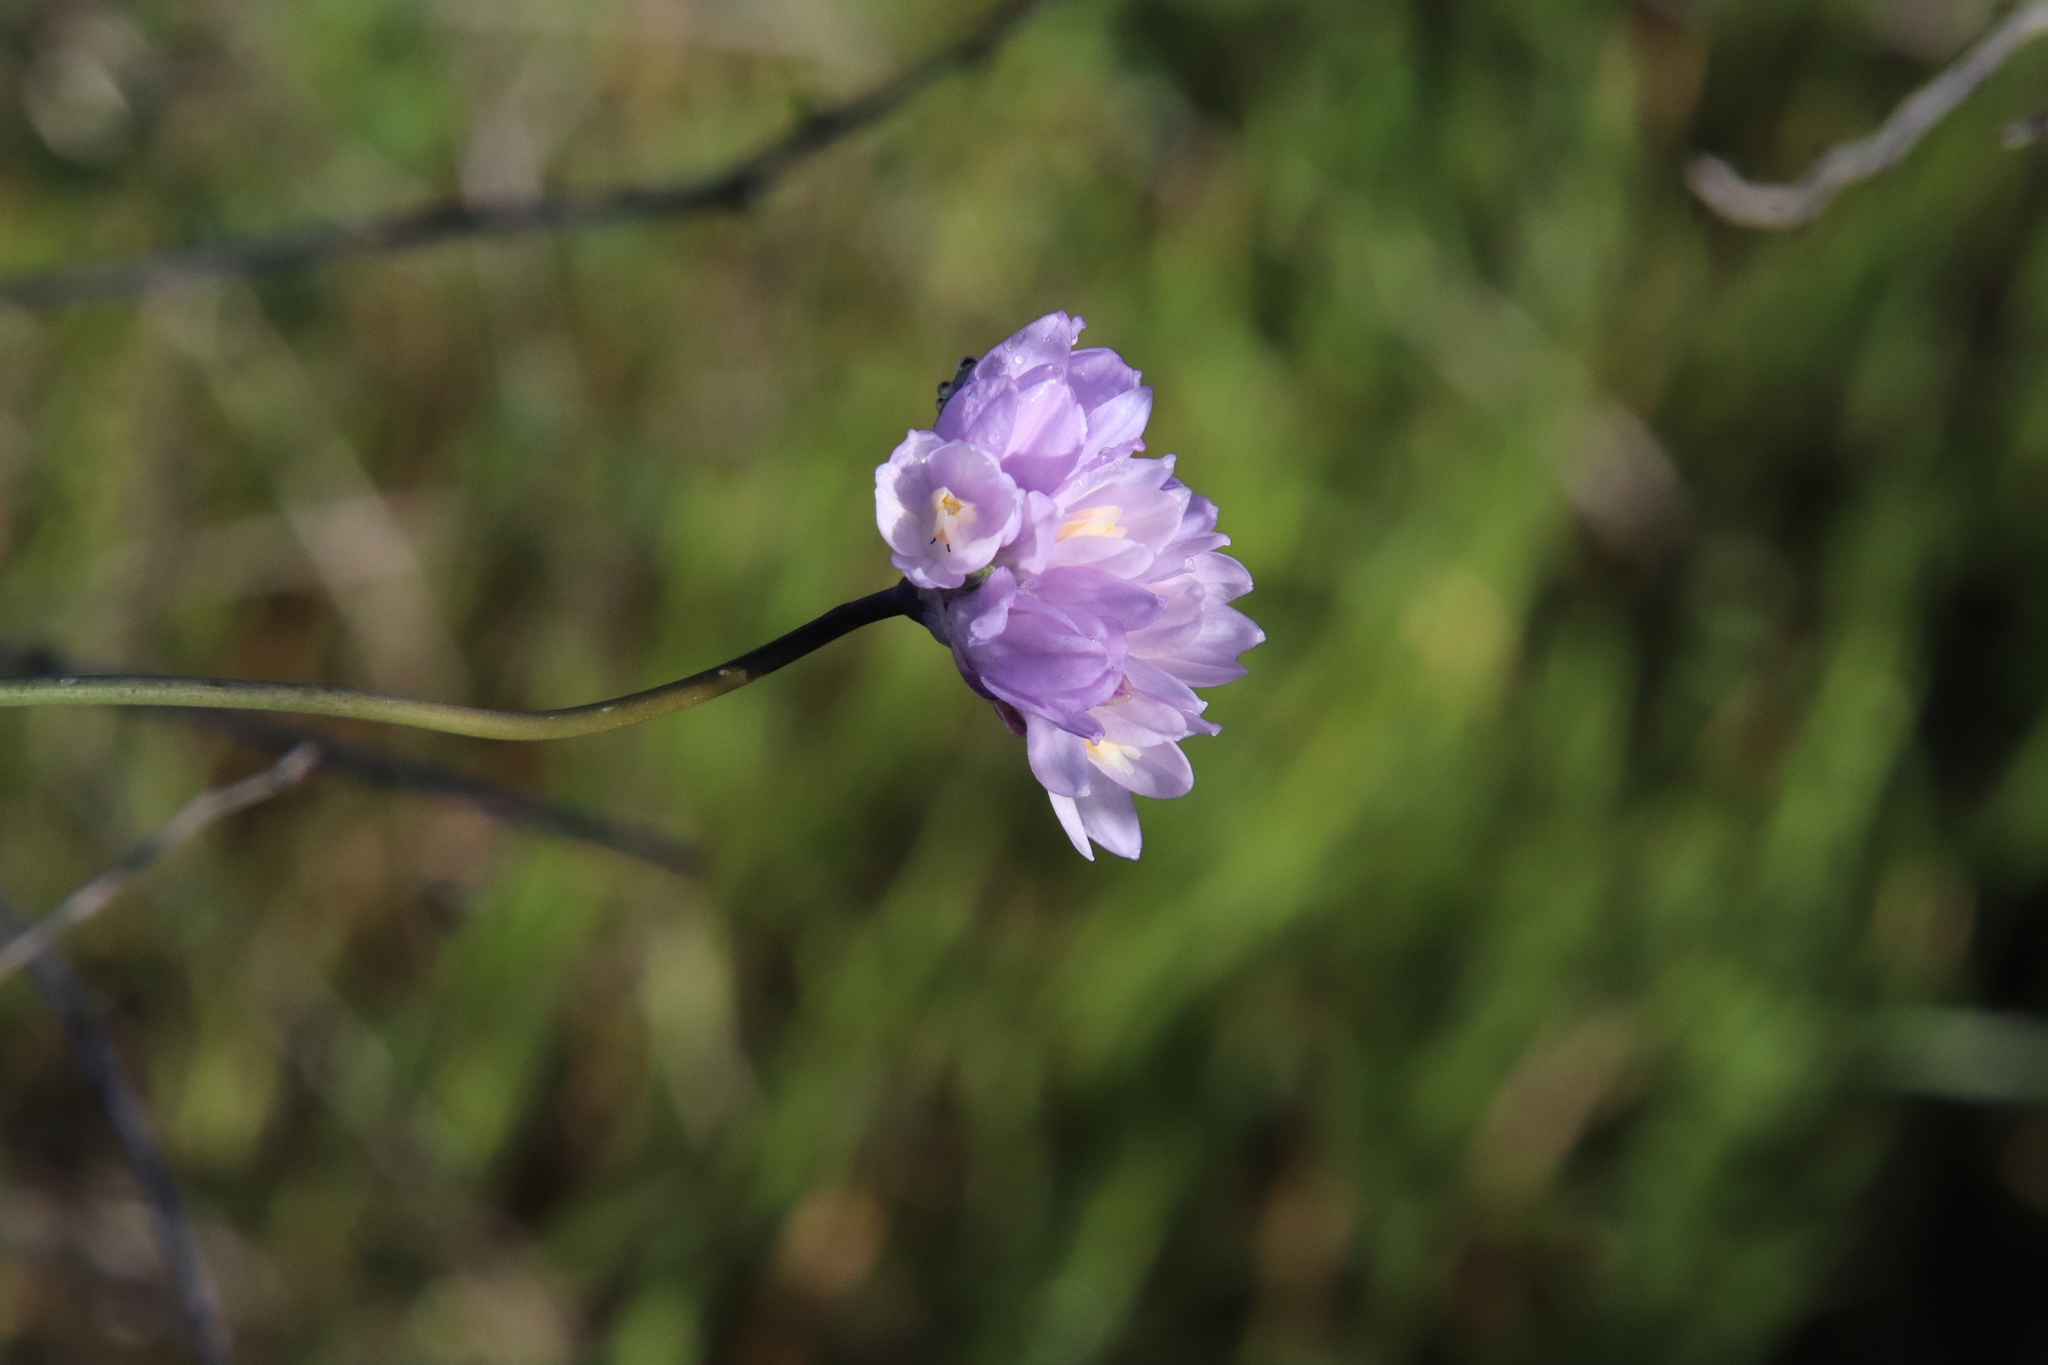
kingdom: Plantae
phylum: Tracheophyta
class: Liliopsida
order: Asparagales
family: Asparagaceae
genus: Dipterostemon
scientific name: Dipterostemon capitatus
